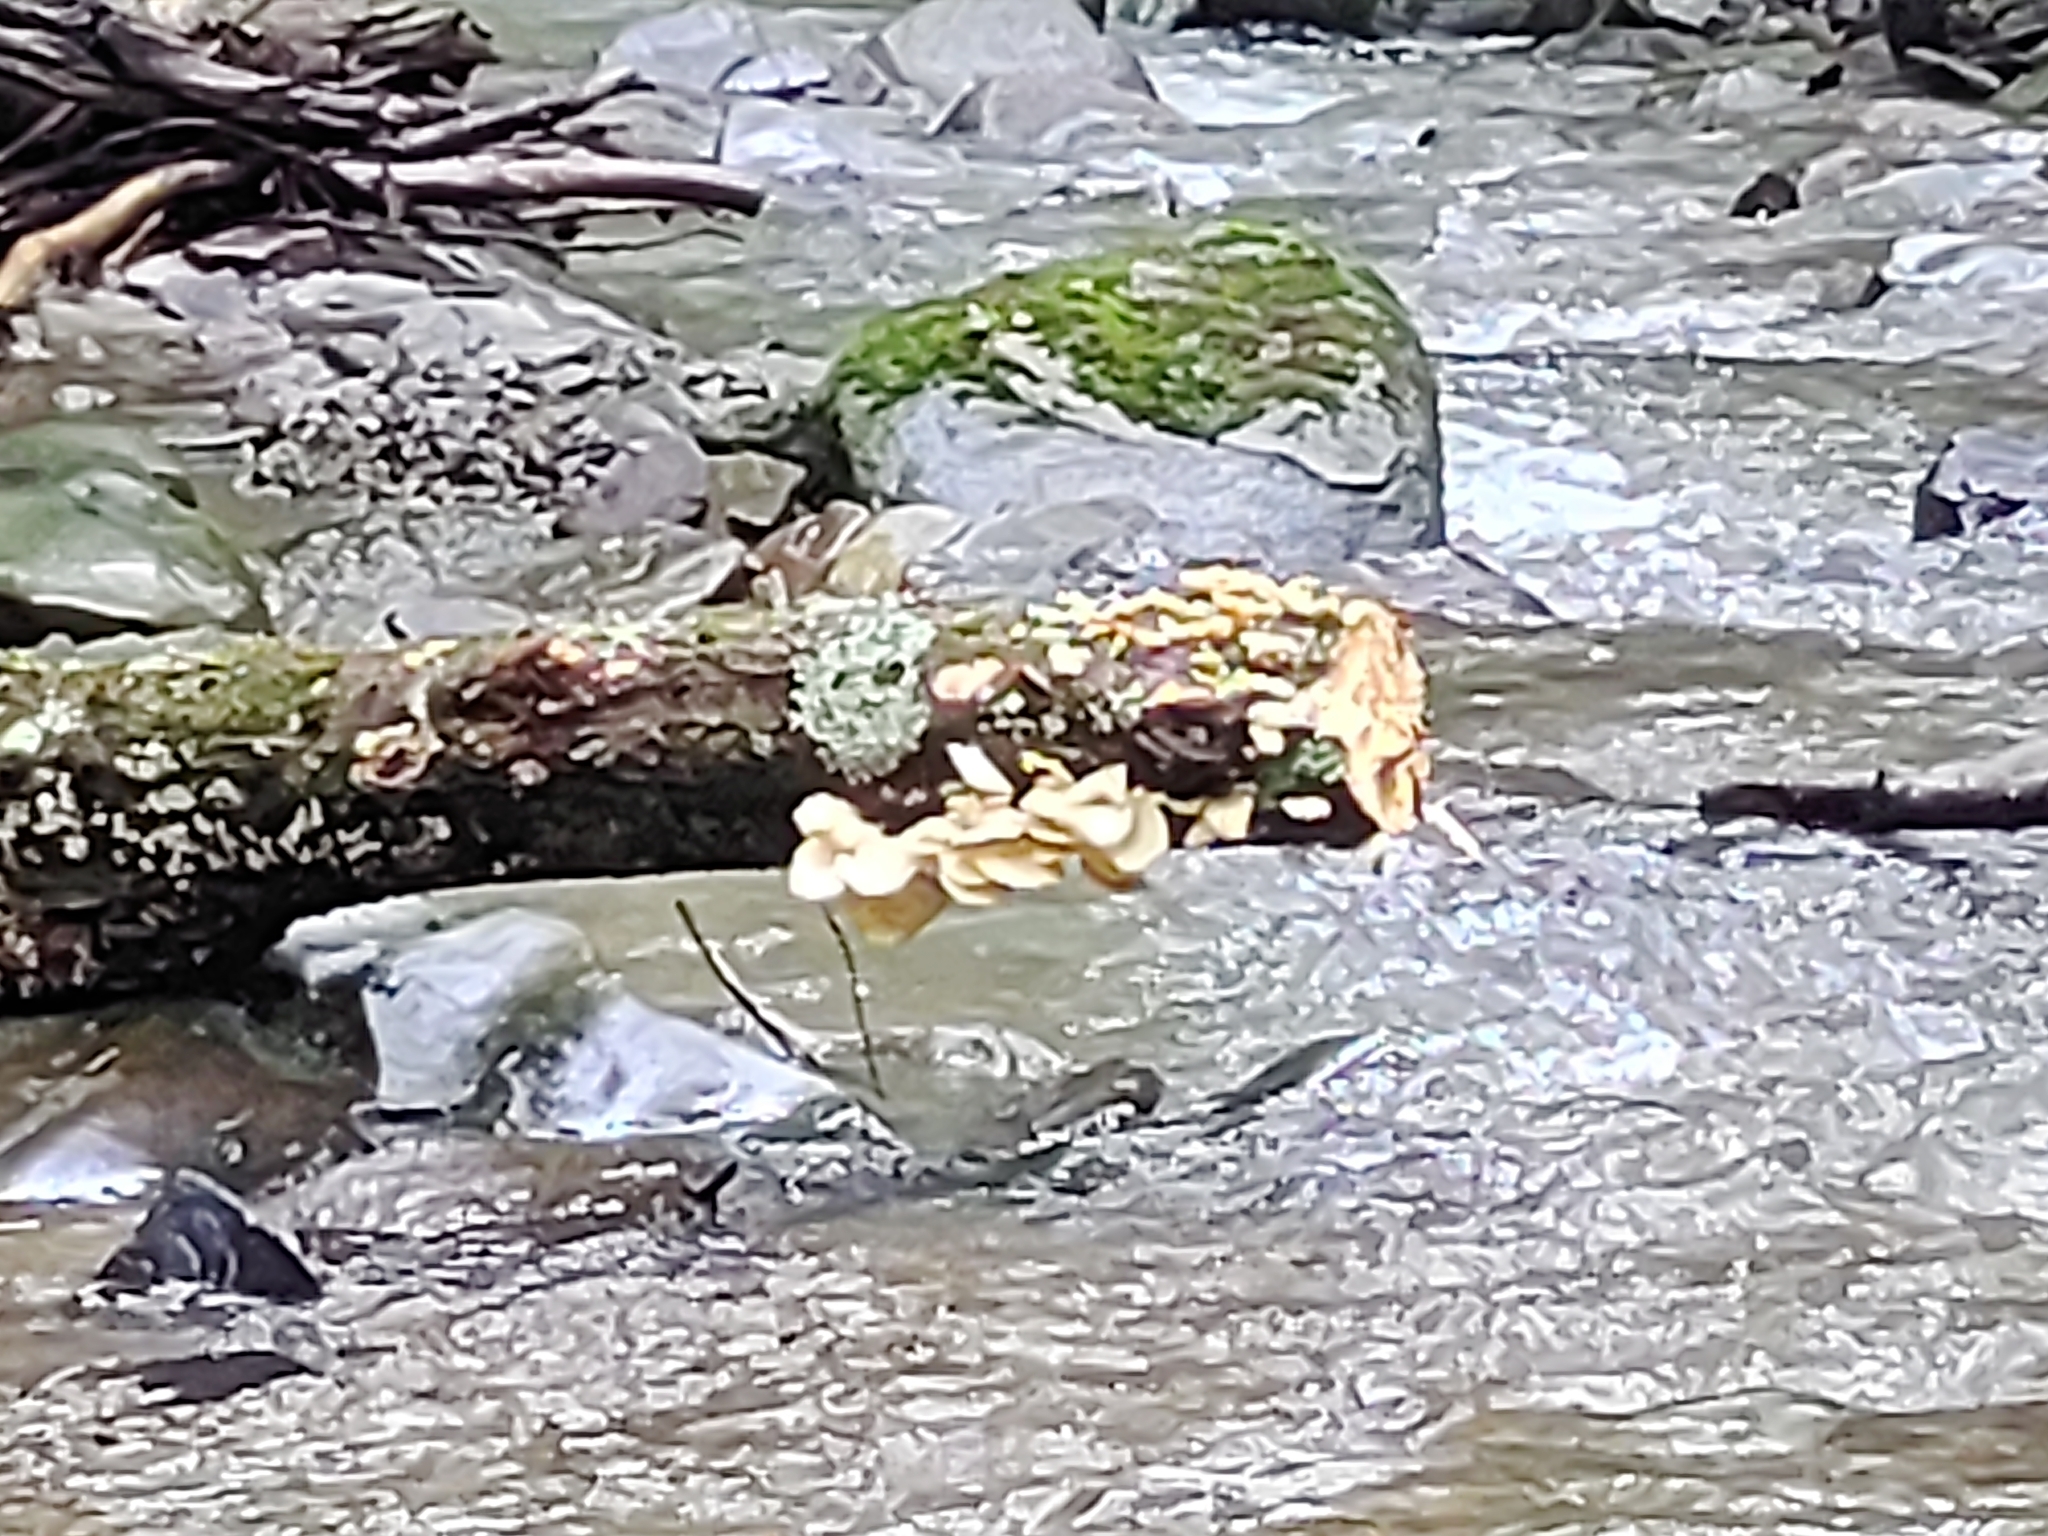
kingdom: Fungi
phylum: Basidiomycota
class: Agaricomycetes
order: Agaricales
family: Pleurotaceae
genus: Pleurotus
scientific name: Pleurotus pulmonarius
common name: Pale oyster
